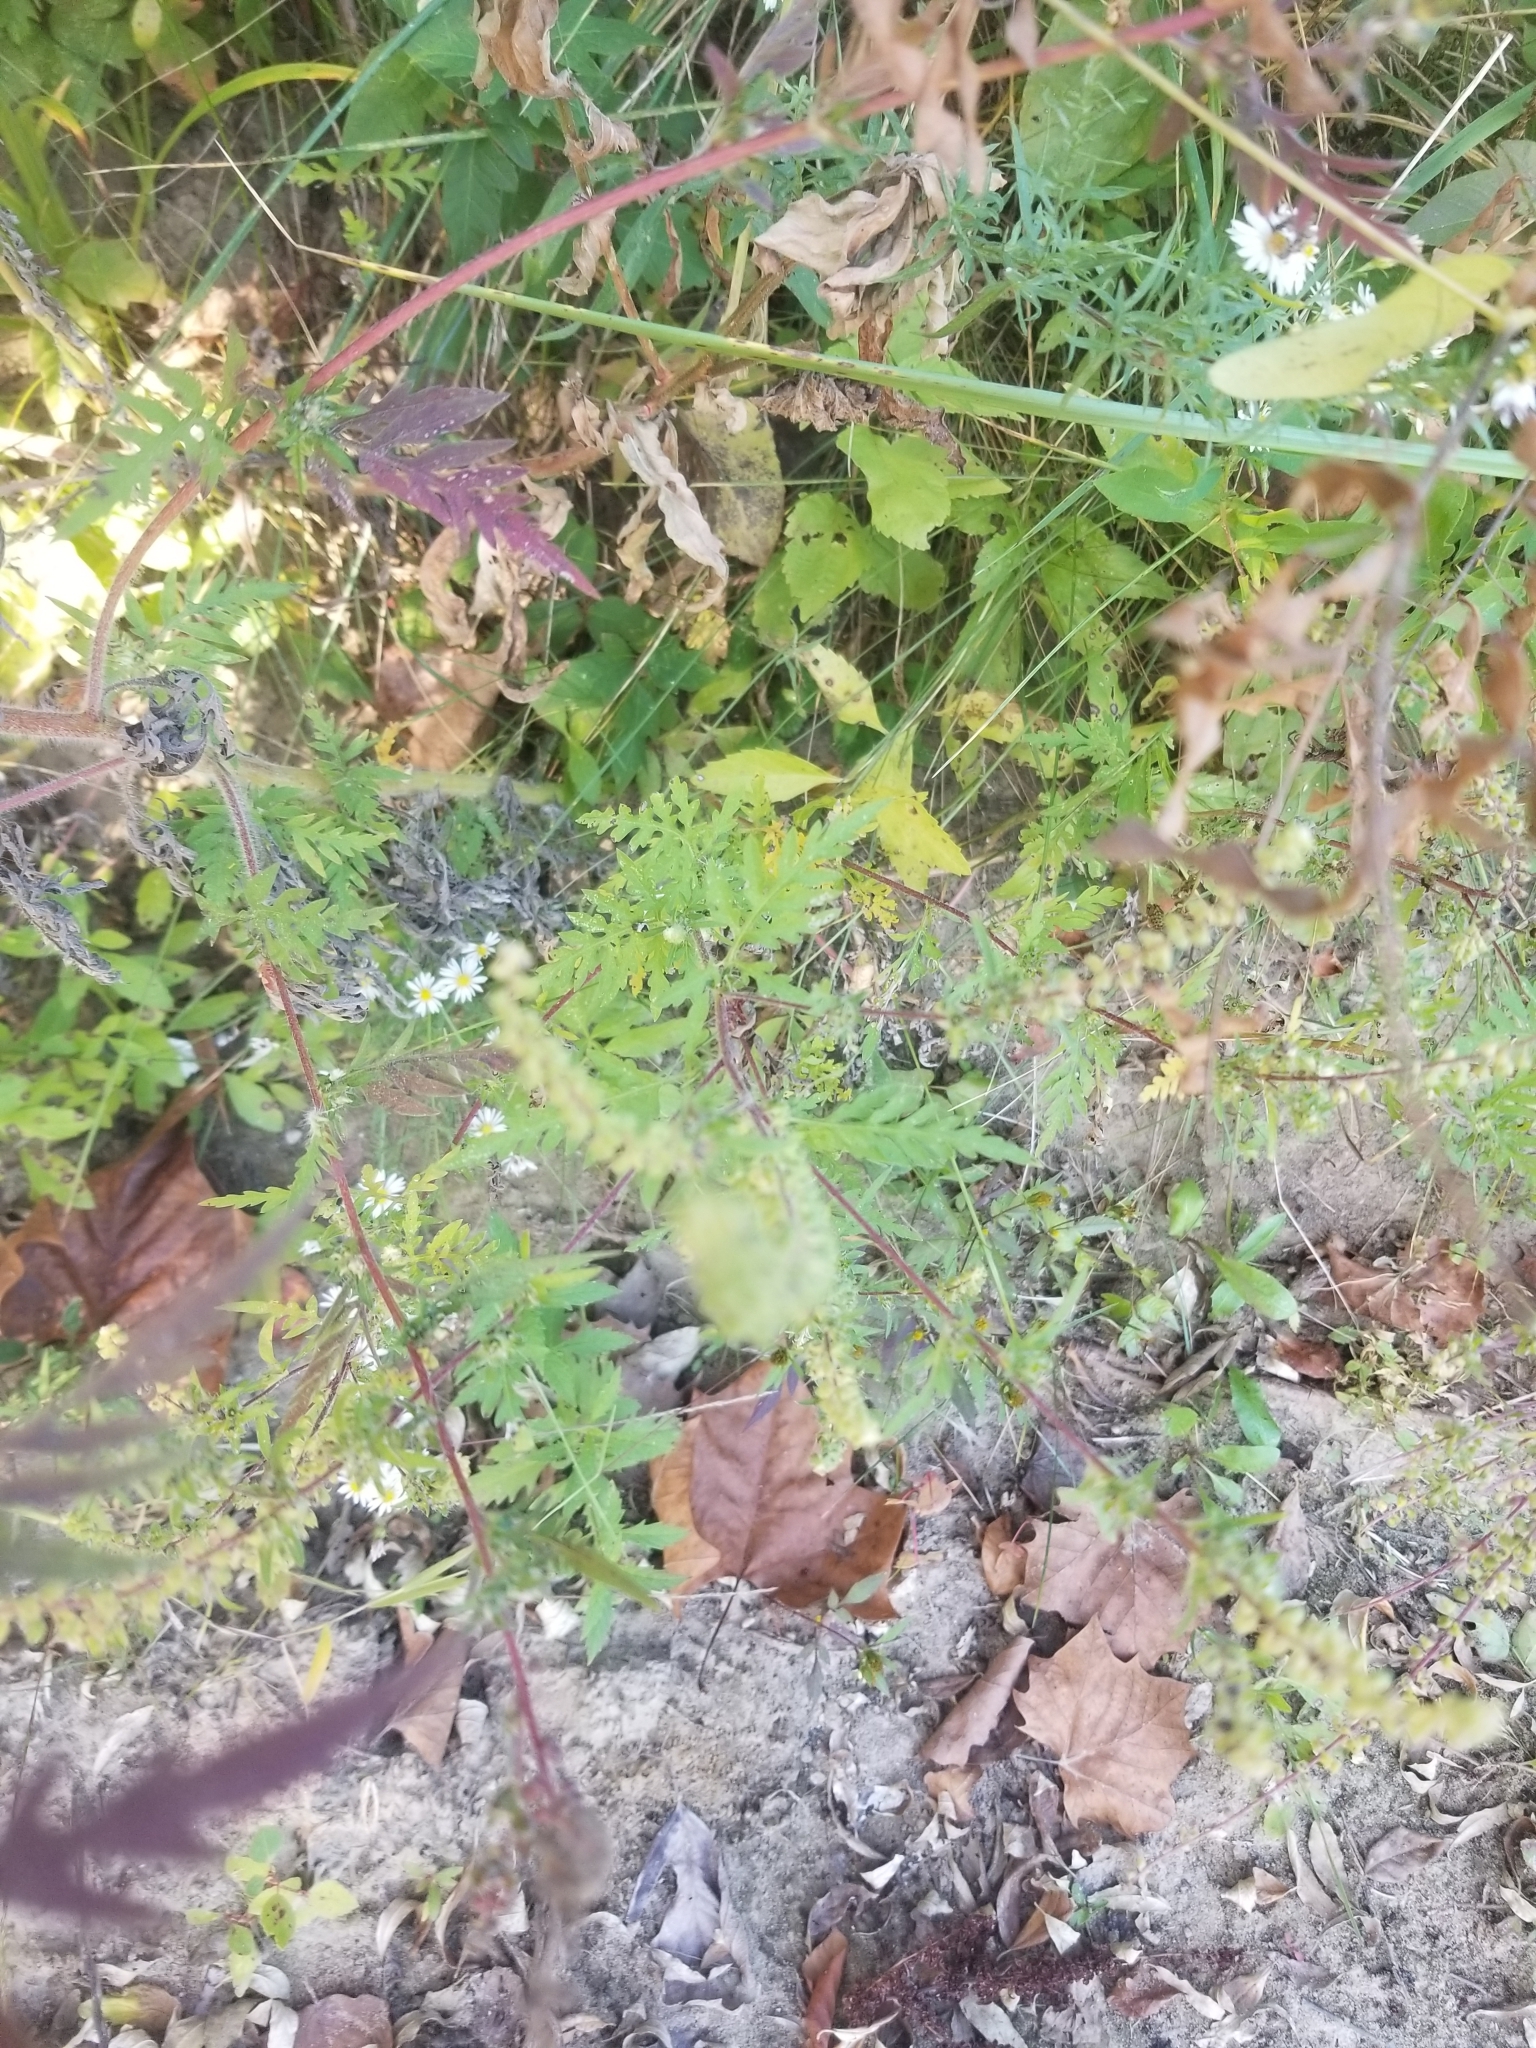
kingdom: Plantae
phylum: Tracheophyta
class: Magnoliopsida
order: Asterales
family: Asteraceae
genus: Ambrosia
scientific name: Ambrosia artemisiifolia
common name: Annual ragweed
